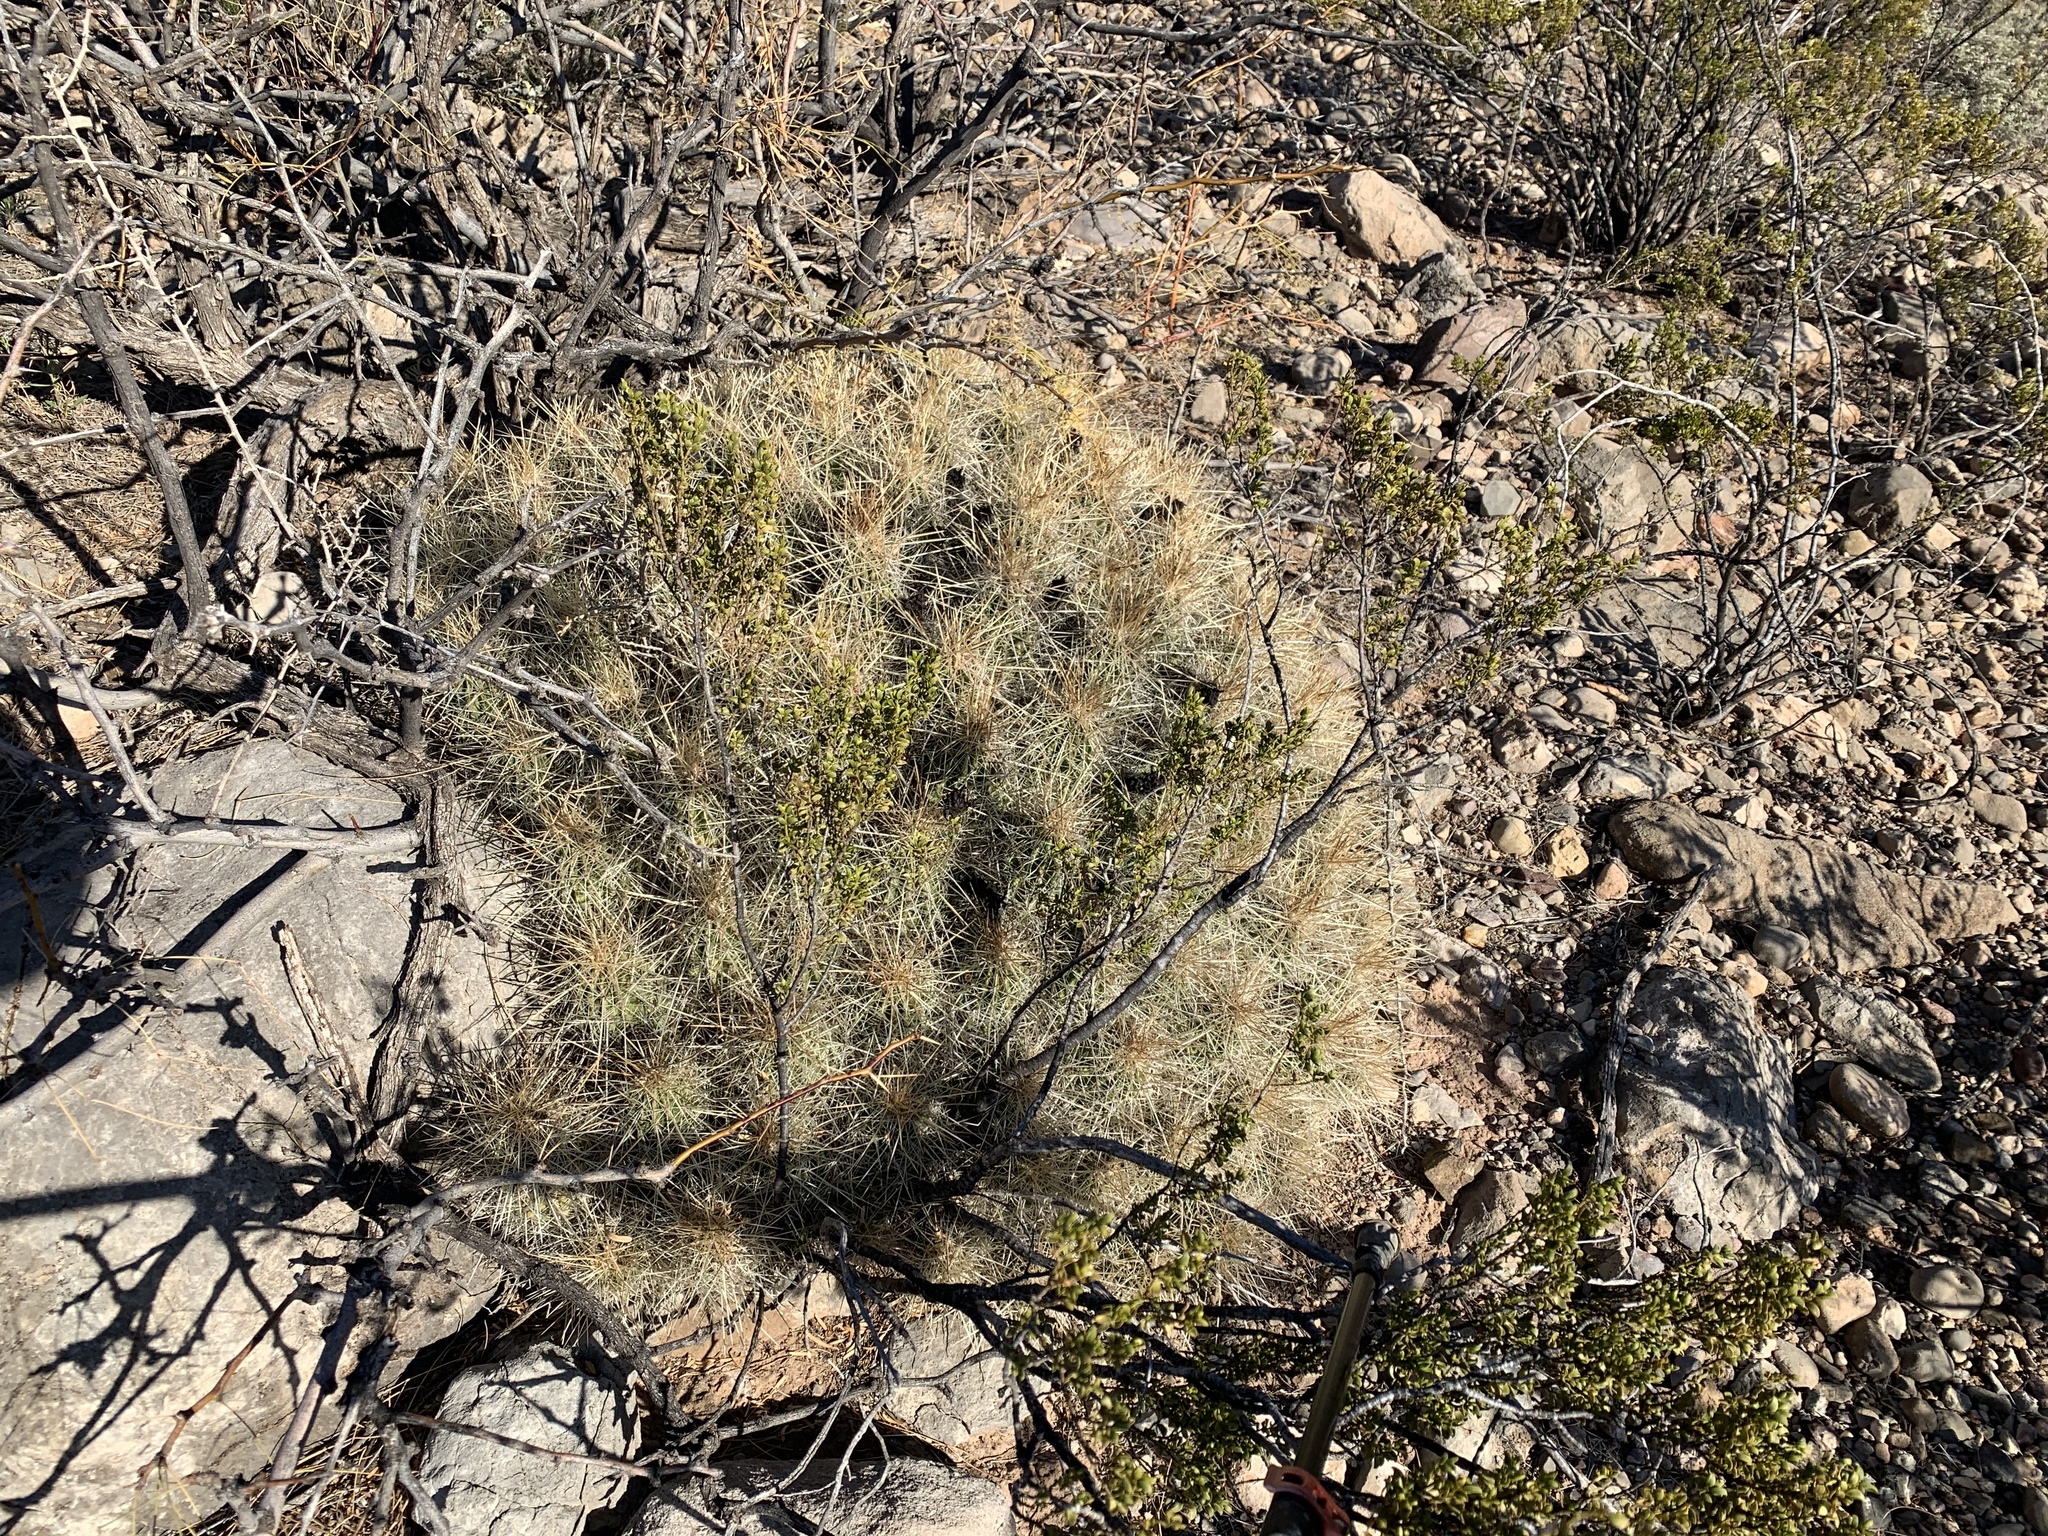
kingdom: Plantae
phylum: Tracheophyta
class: Magnoliopsida
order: Caryophyllales
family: Cactaceae
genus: Echinocereus
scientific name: Echinocereus stramineus
